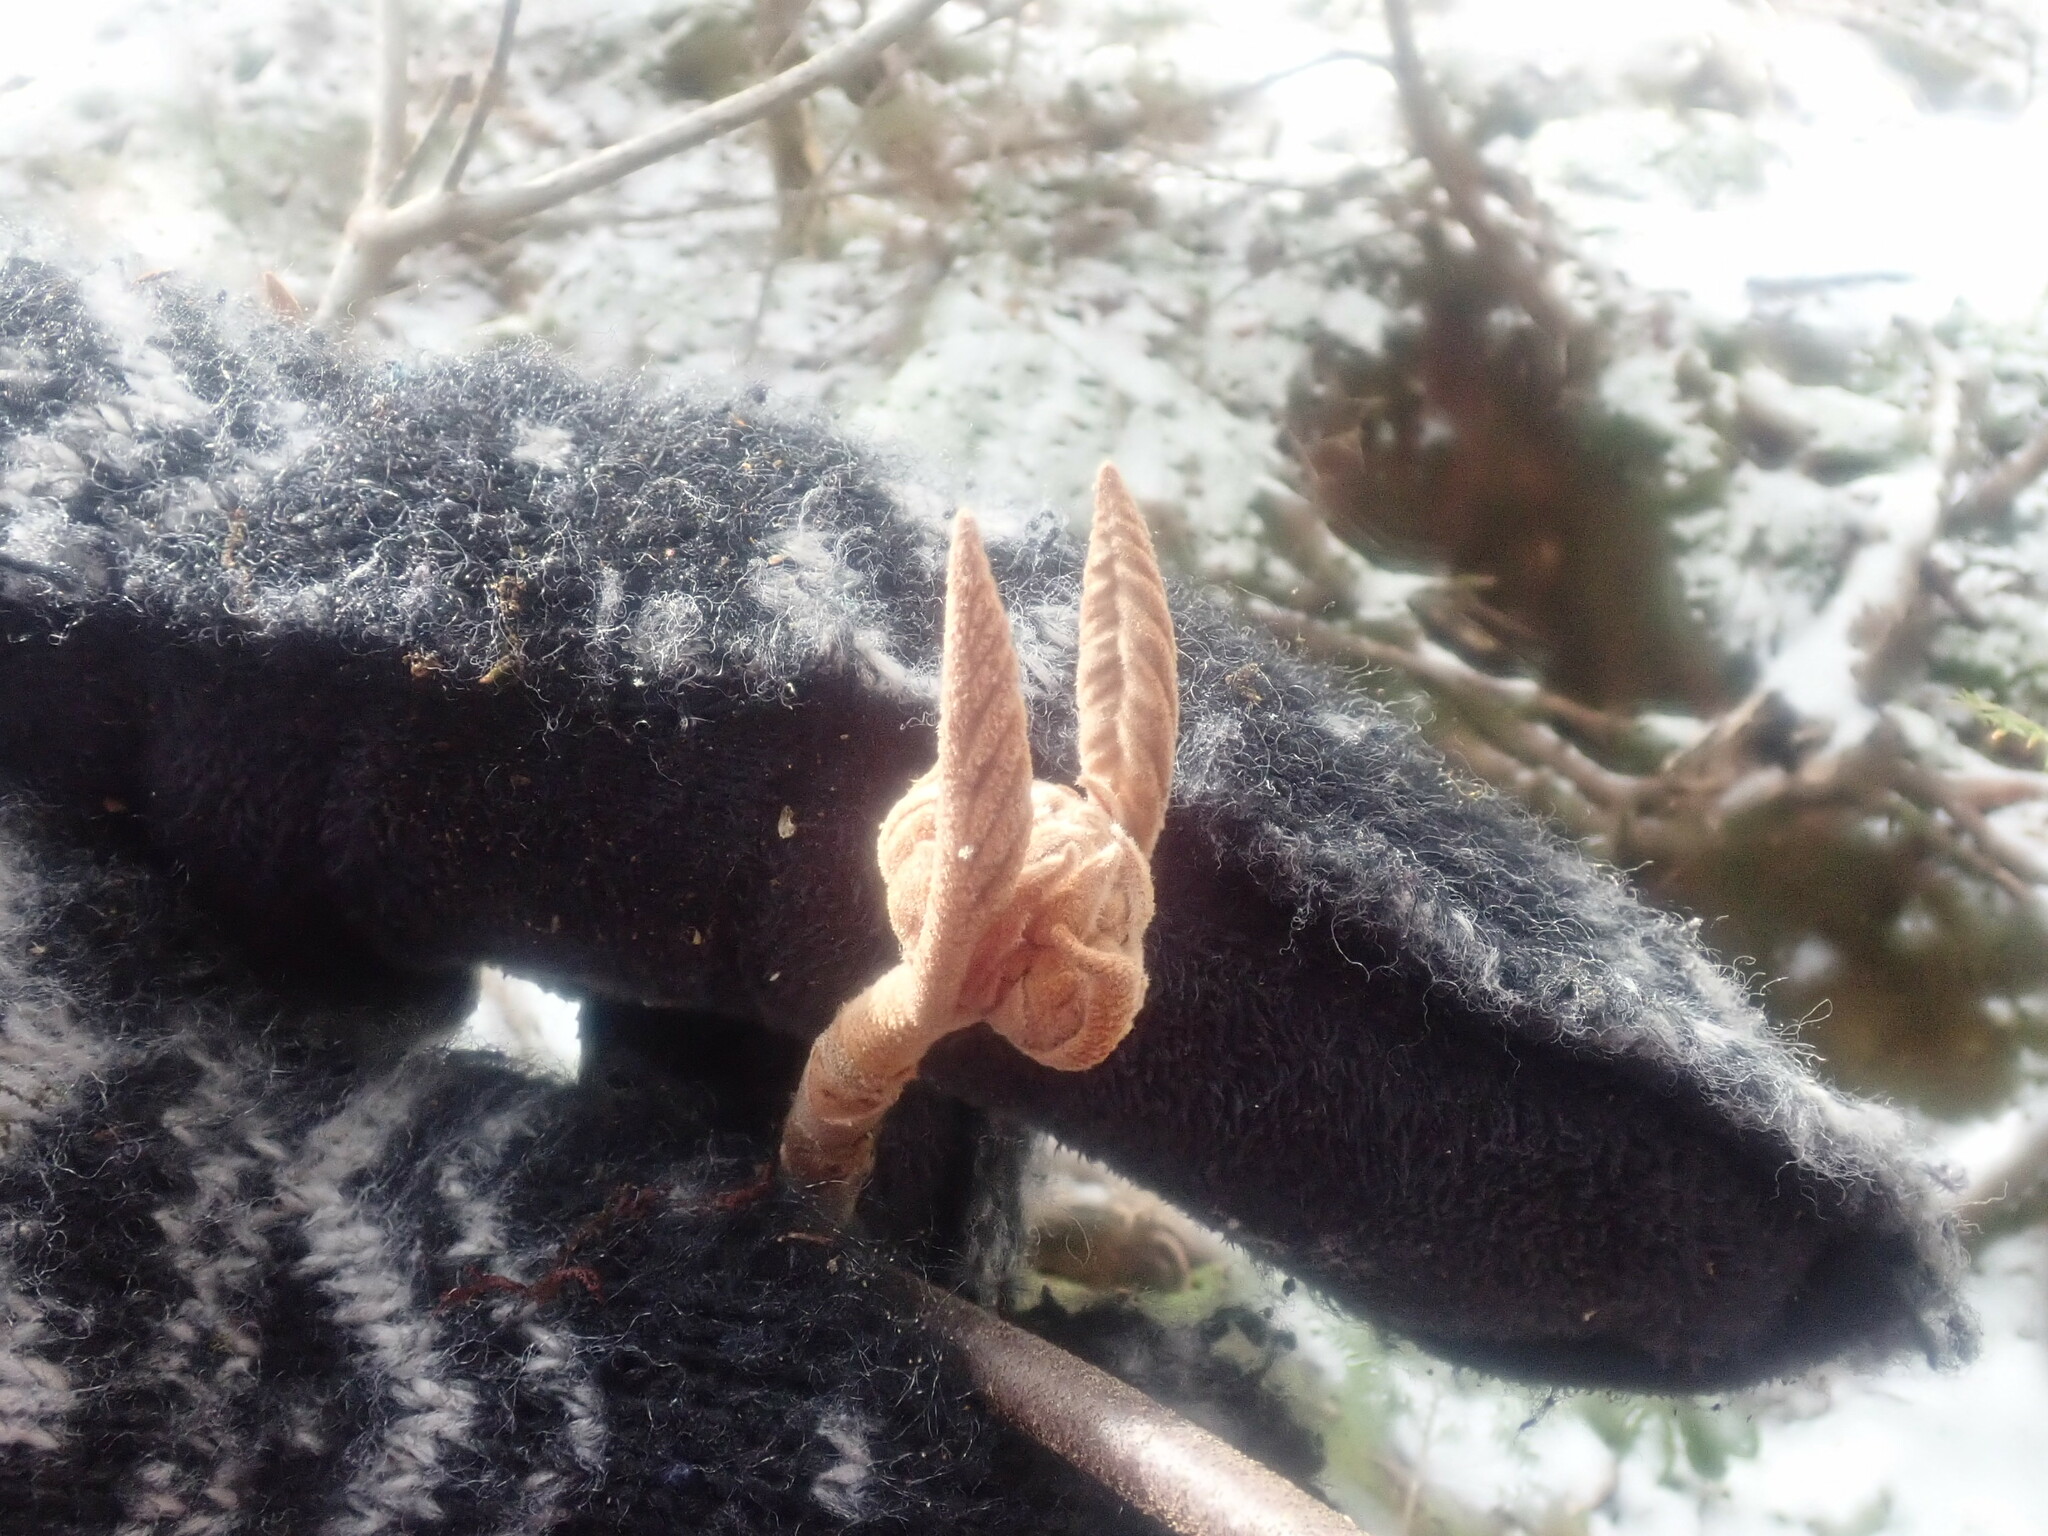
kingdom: Plantae
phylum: Tracheophyta
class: Magnoliopsida
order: Dipsacales
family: Viburnaceae
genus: Viburnum
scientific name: Viburnum lantanoides
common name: Hobblebush
